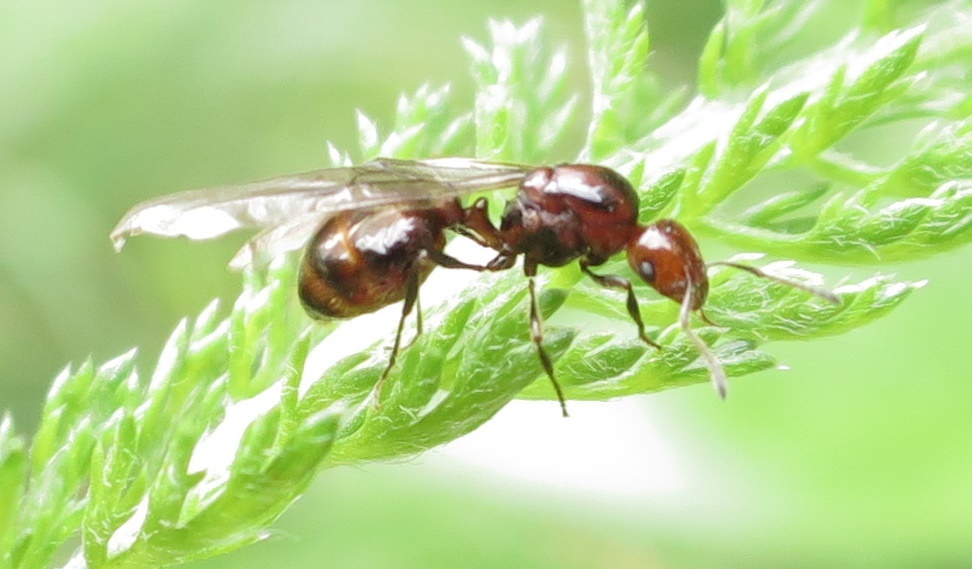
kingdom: Animalia
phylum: Arthropoda
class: Insecta
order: Hymenoptera
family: Formicidae
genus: Monomorium
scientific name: Monomorium antarcticum
